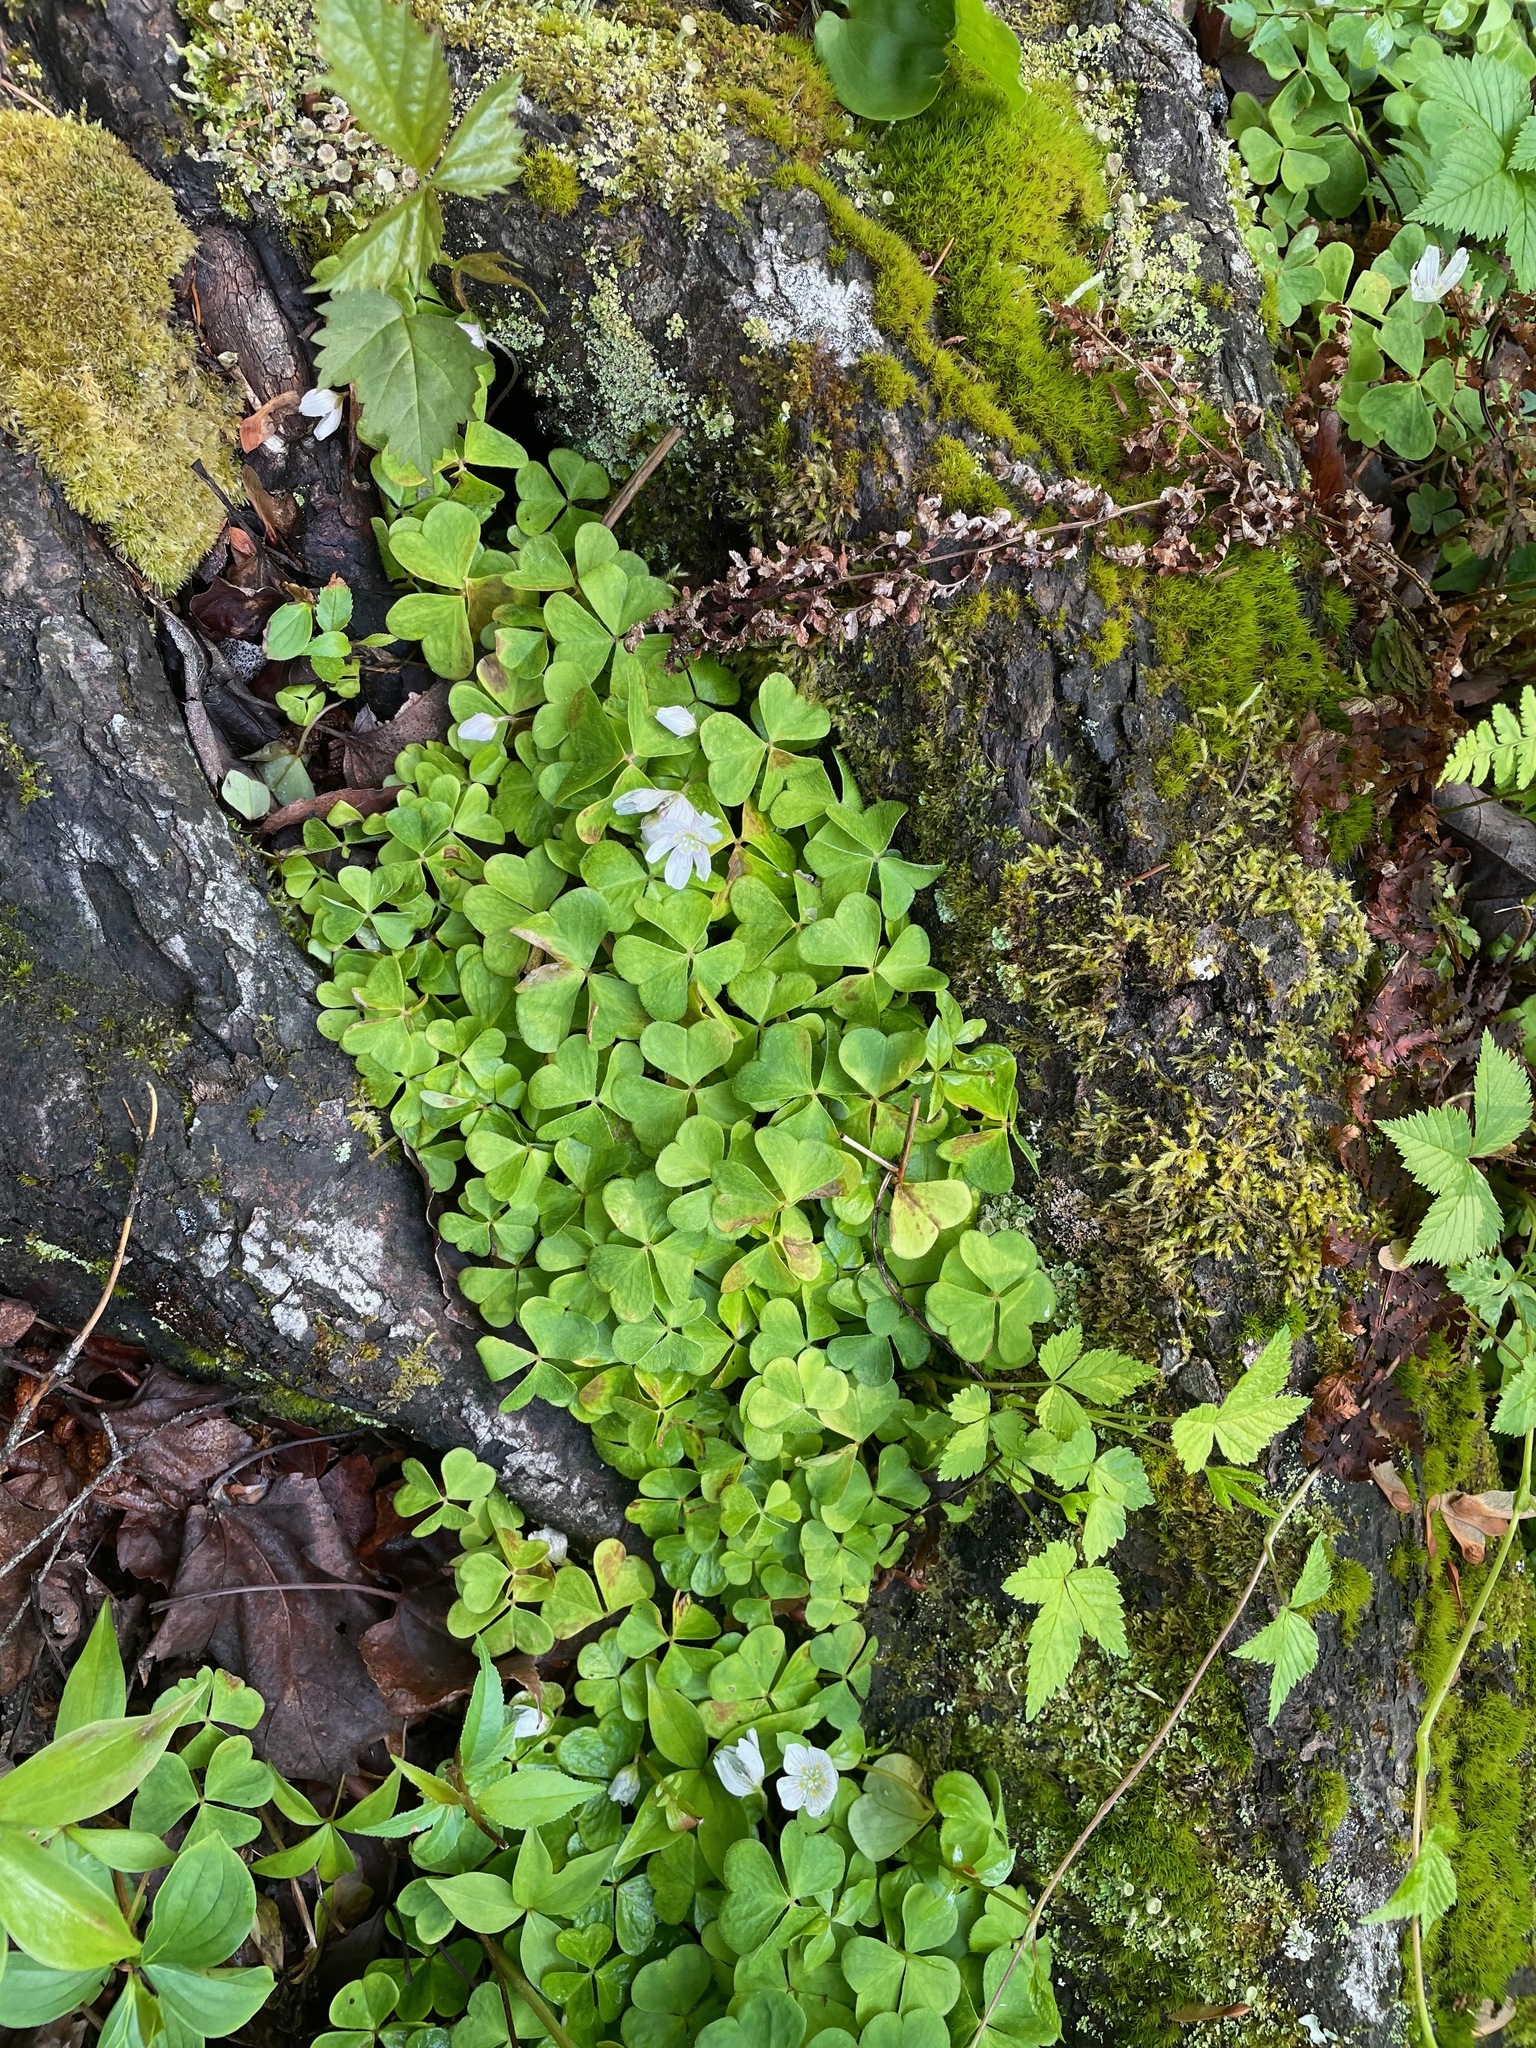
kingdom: Plantae
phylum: Tracheophyta
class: Magnoliopsida
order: Oxalidales
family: Oxalidaceae
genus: Oxalis
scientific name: Oxalis montana
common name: American wood-sorrel
